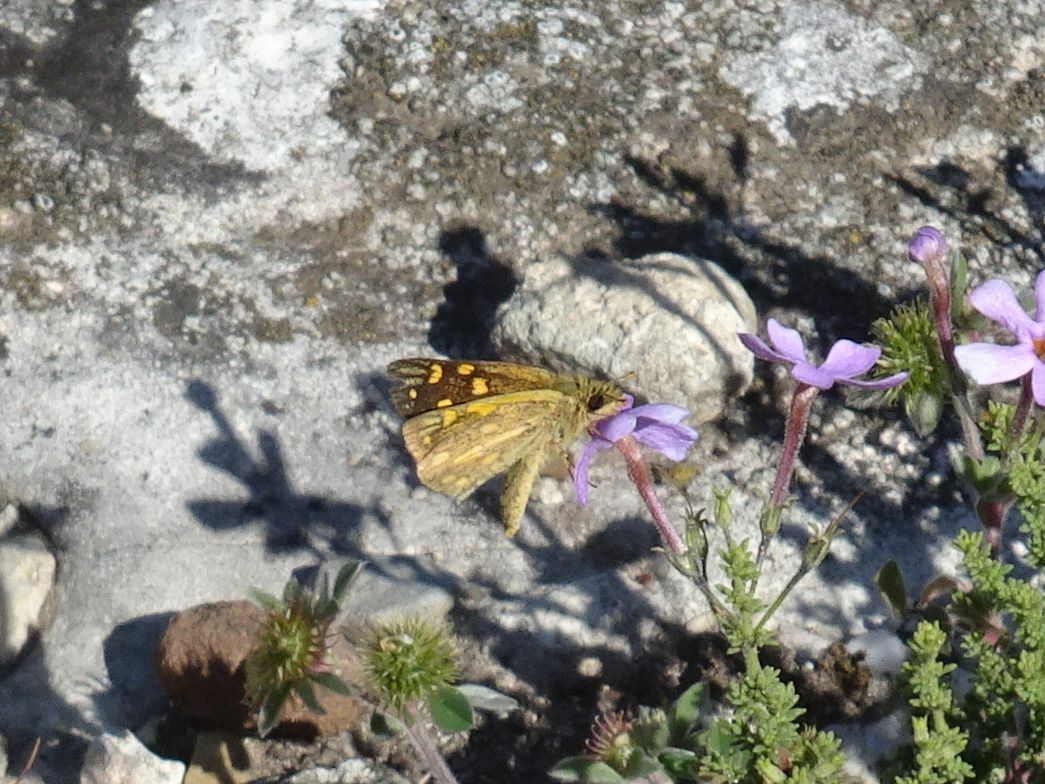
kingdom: Animalia
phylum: Arthropoda
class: Insecta
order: Lepidoptera
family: Hesperiidae
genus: Metisella
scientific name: Metisella malgacha
